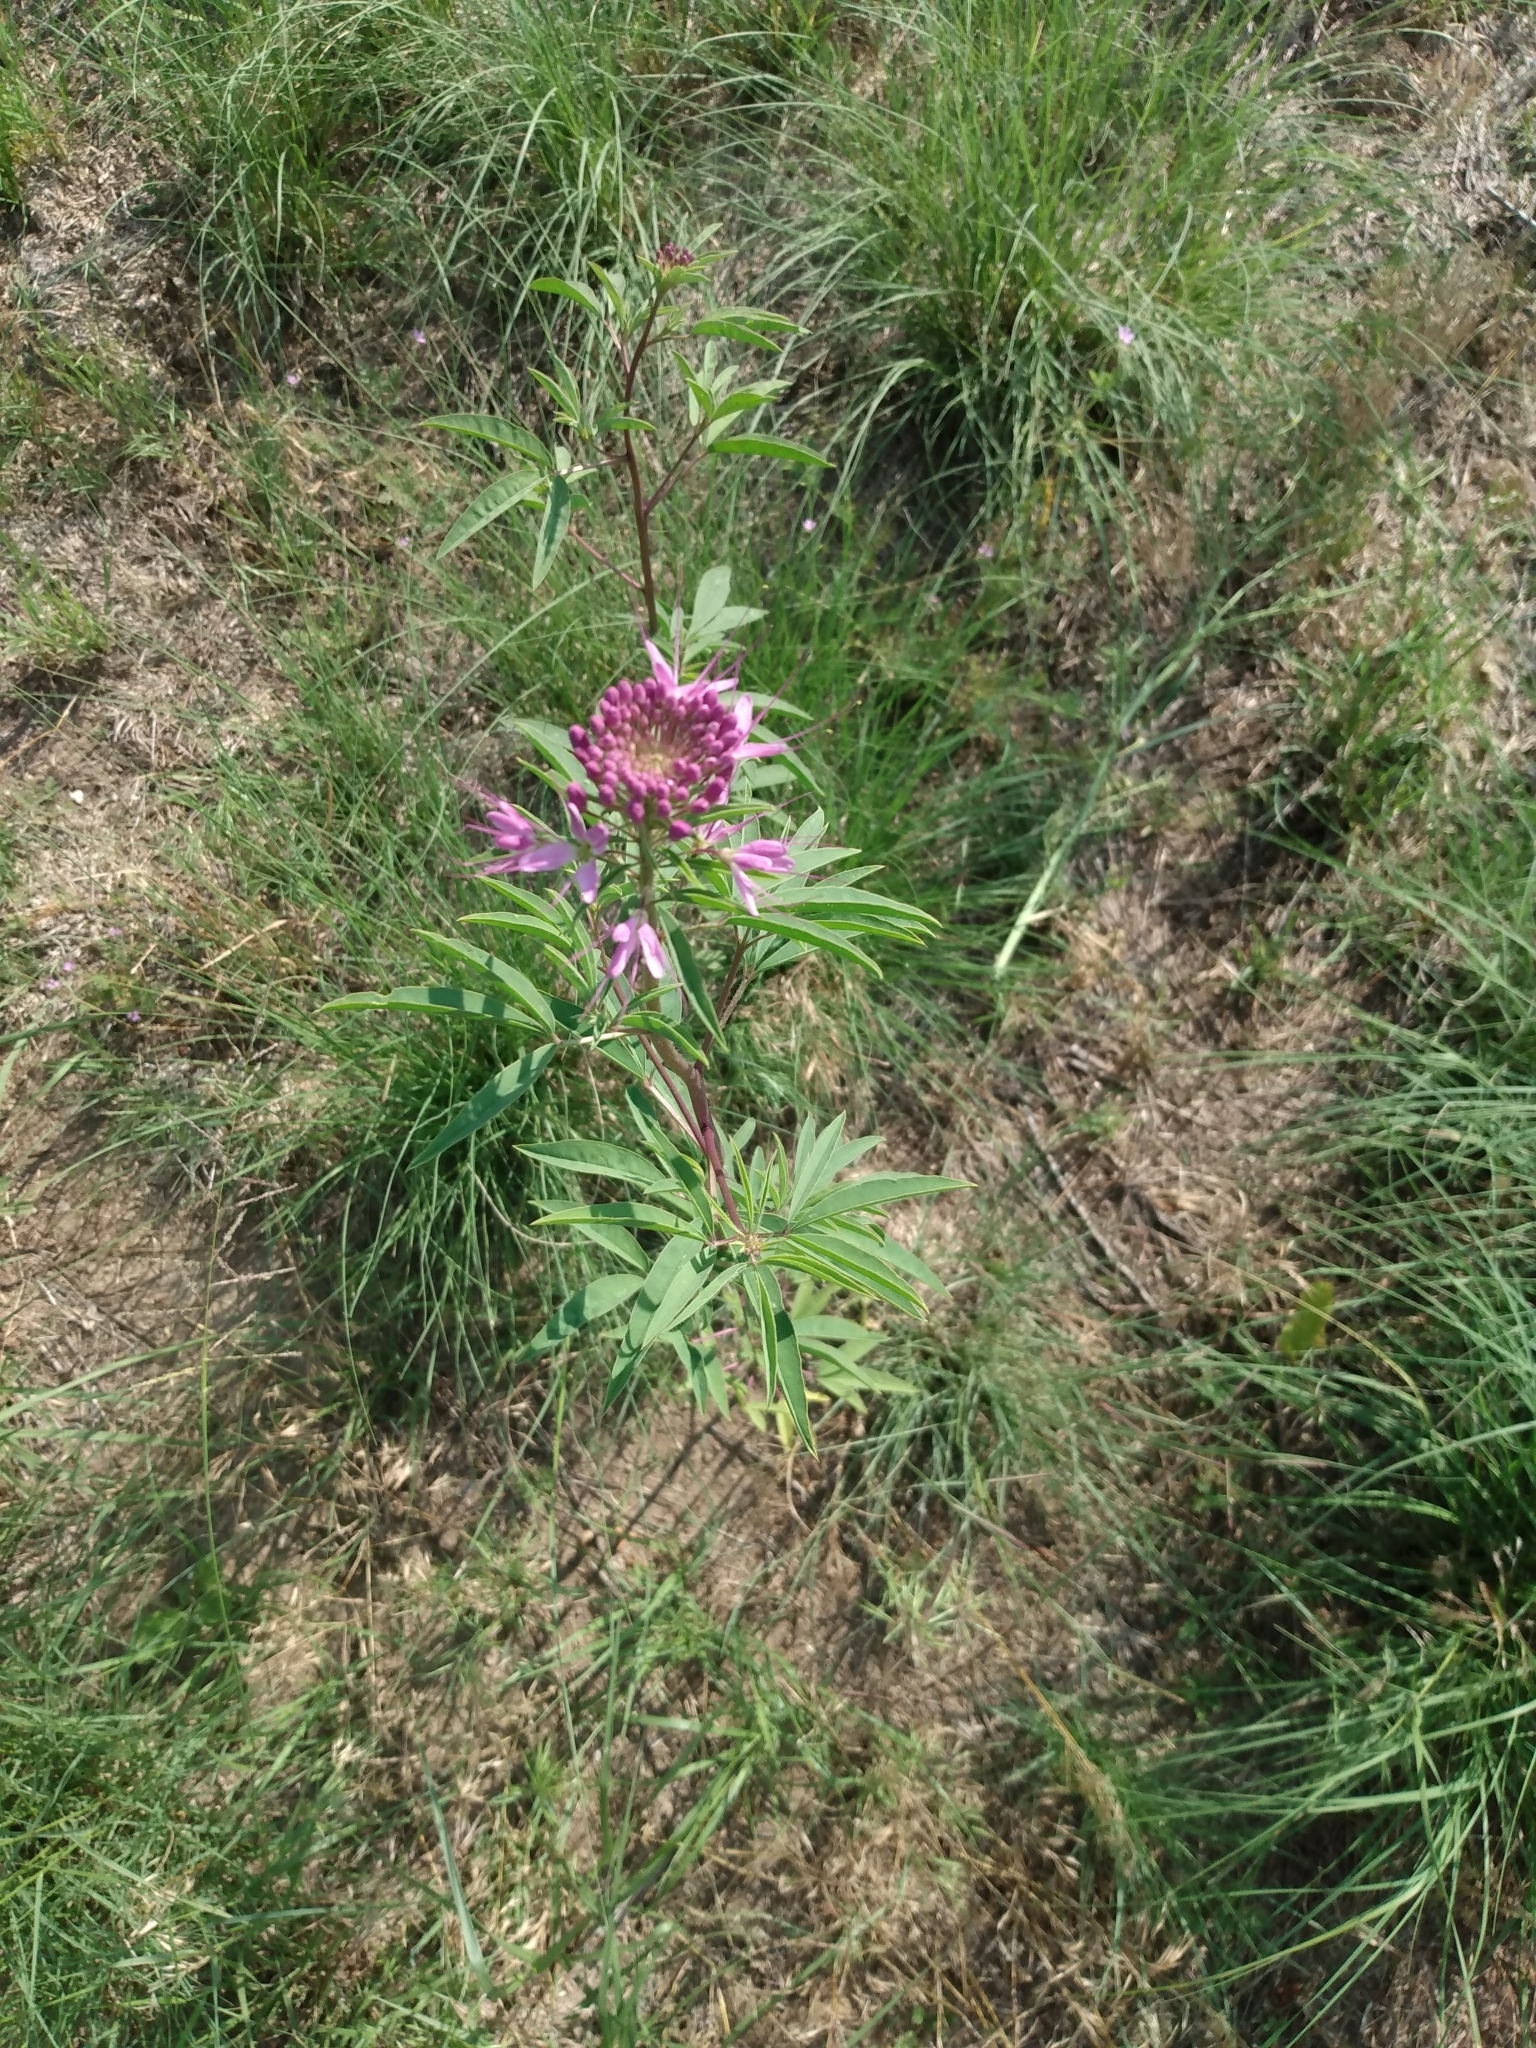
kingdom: Plantae
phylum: Tracheophyta
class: Magnoliopsida
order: Brassicales
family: Cleomaceae
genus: Cleomella
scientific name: Cleomella serrulata
